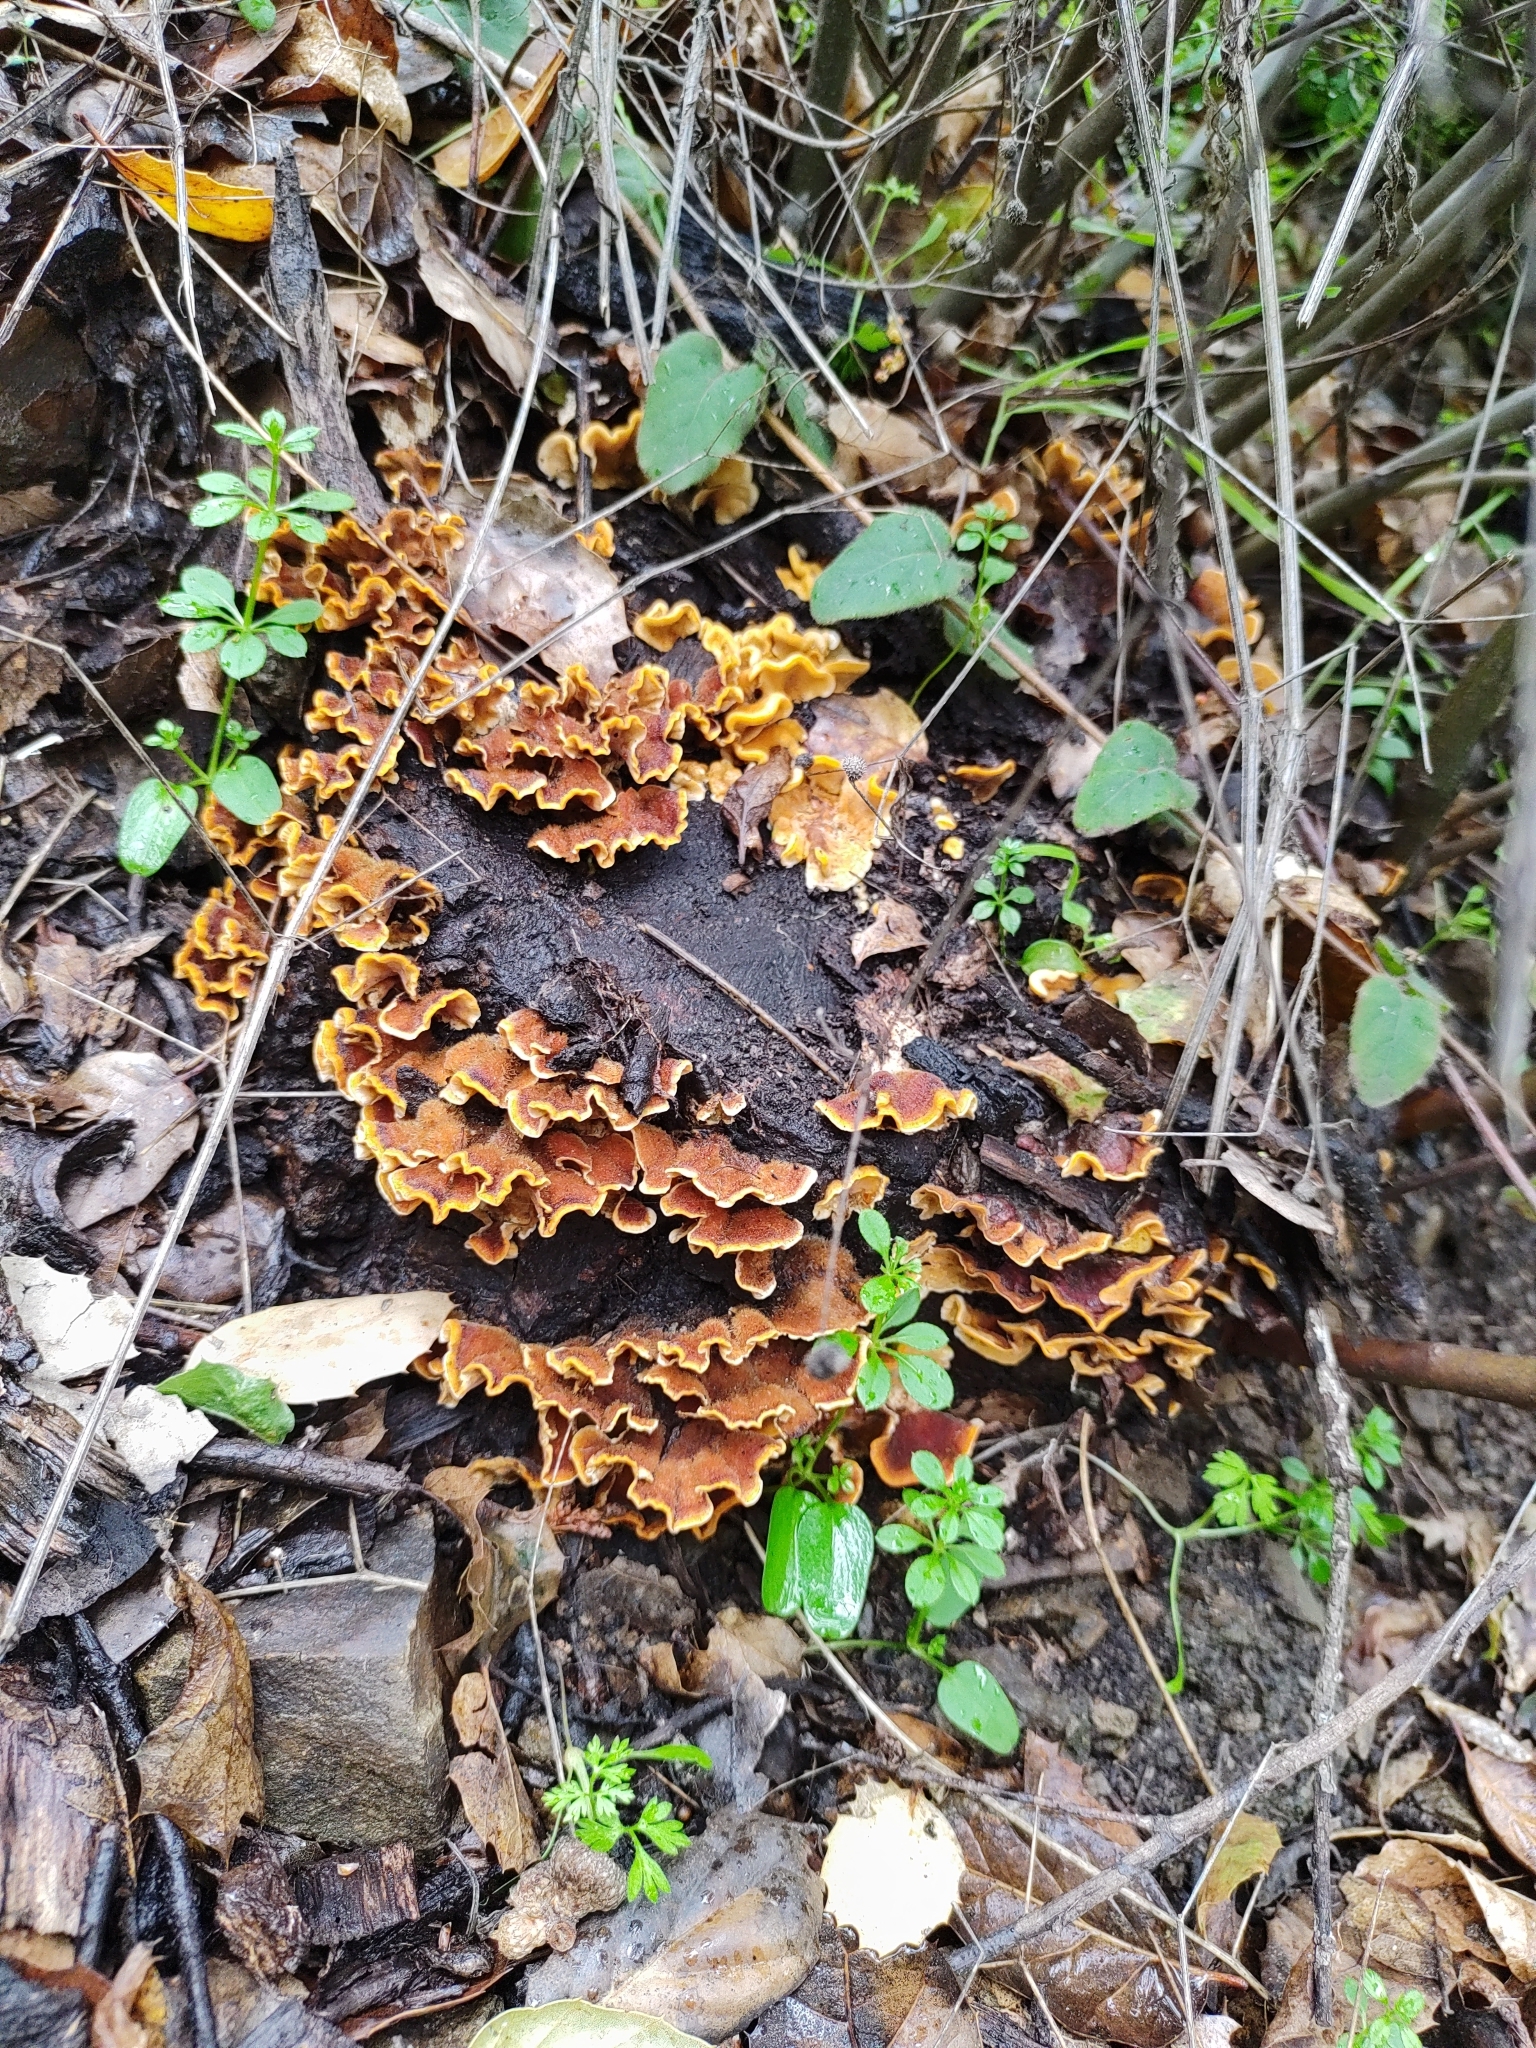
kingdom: Fungi
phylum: Basidiomycota
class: Agaricomycetes
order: Russulales
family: Stereaceae
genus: Stereum
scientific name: Stereum hirsutum
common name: Hairy curtain crust
